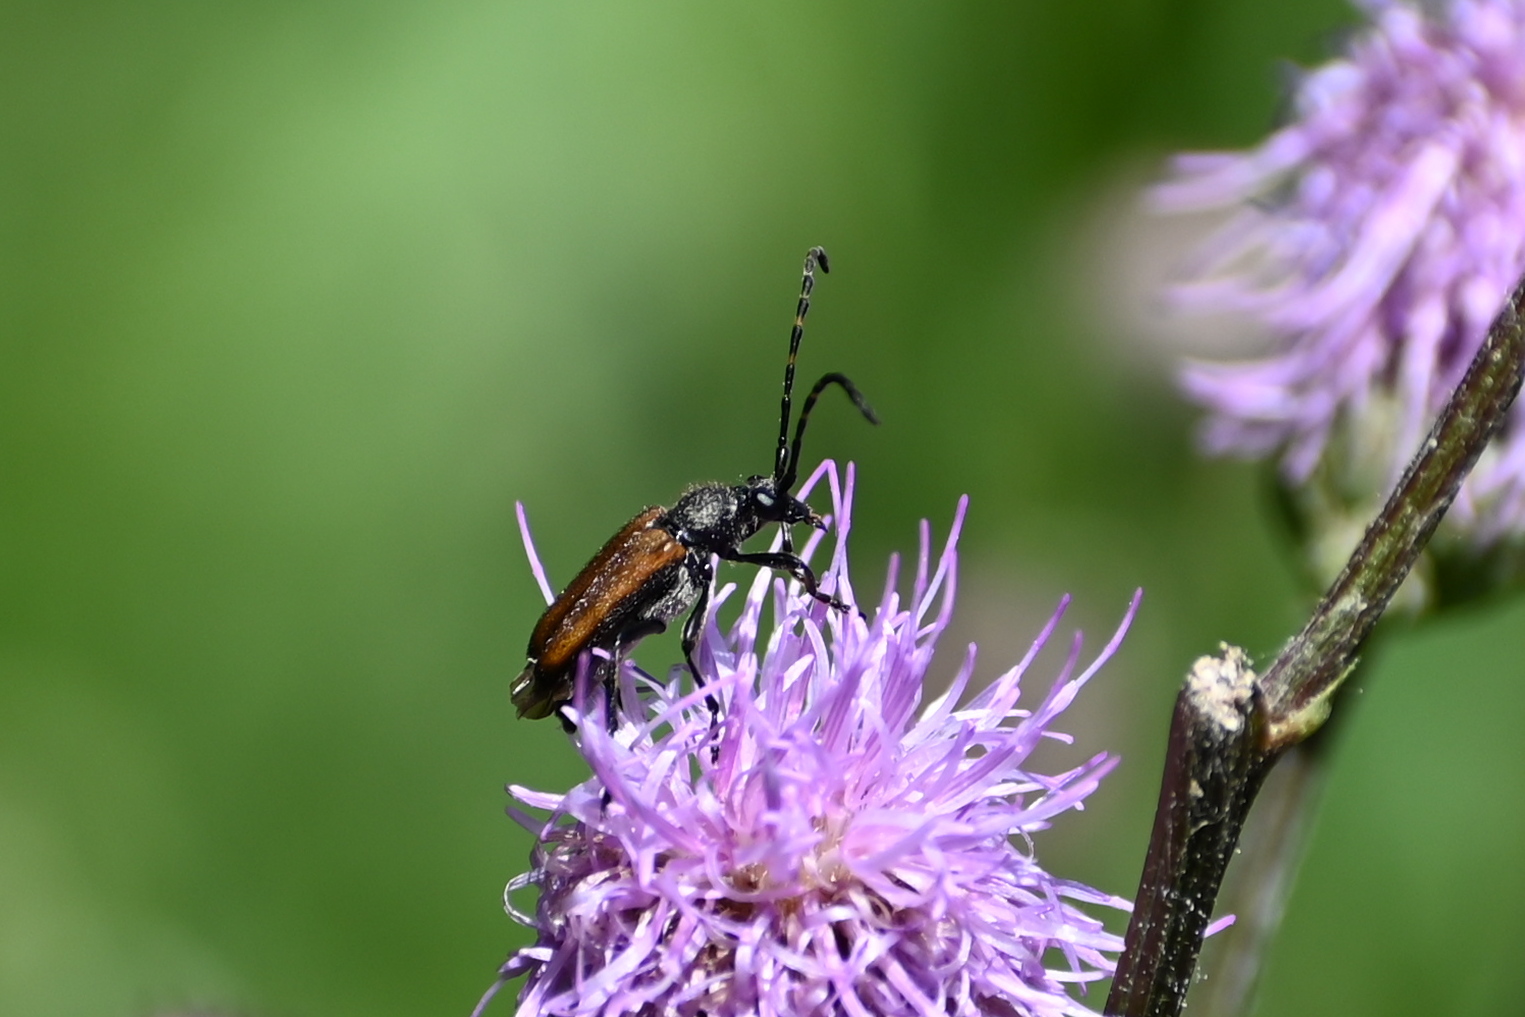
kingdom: Animalia
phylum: Arthropoda
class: Insecta
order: Coleoptera
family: Cerambycidae
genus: Paracorymbia
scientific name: Paracorymbia maculicornis
